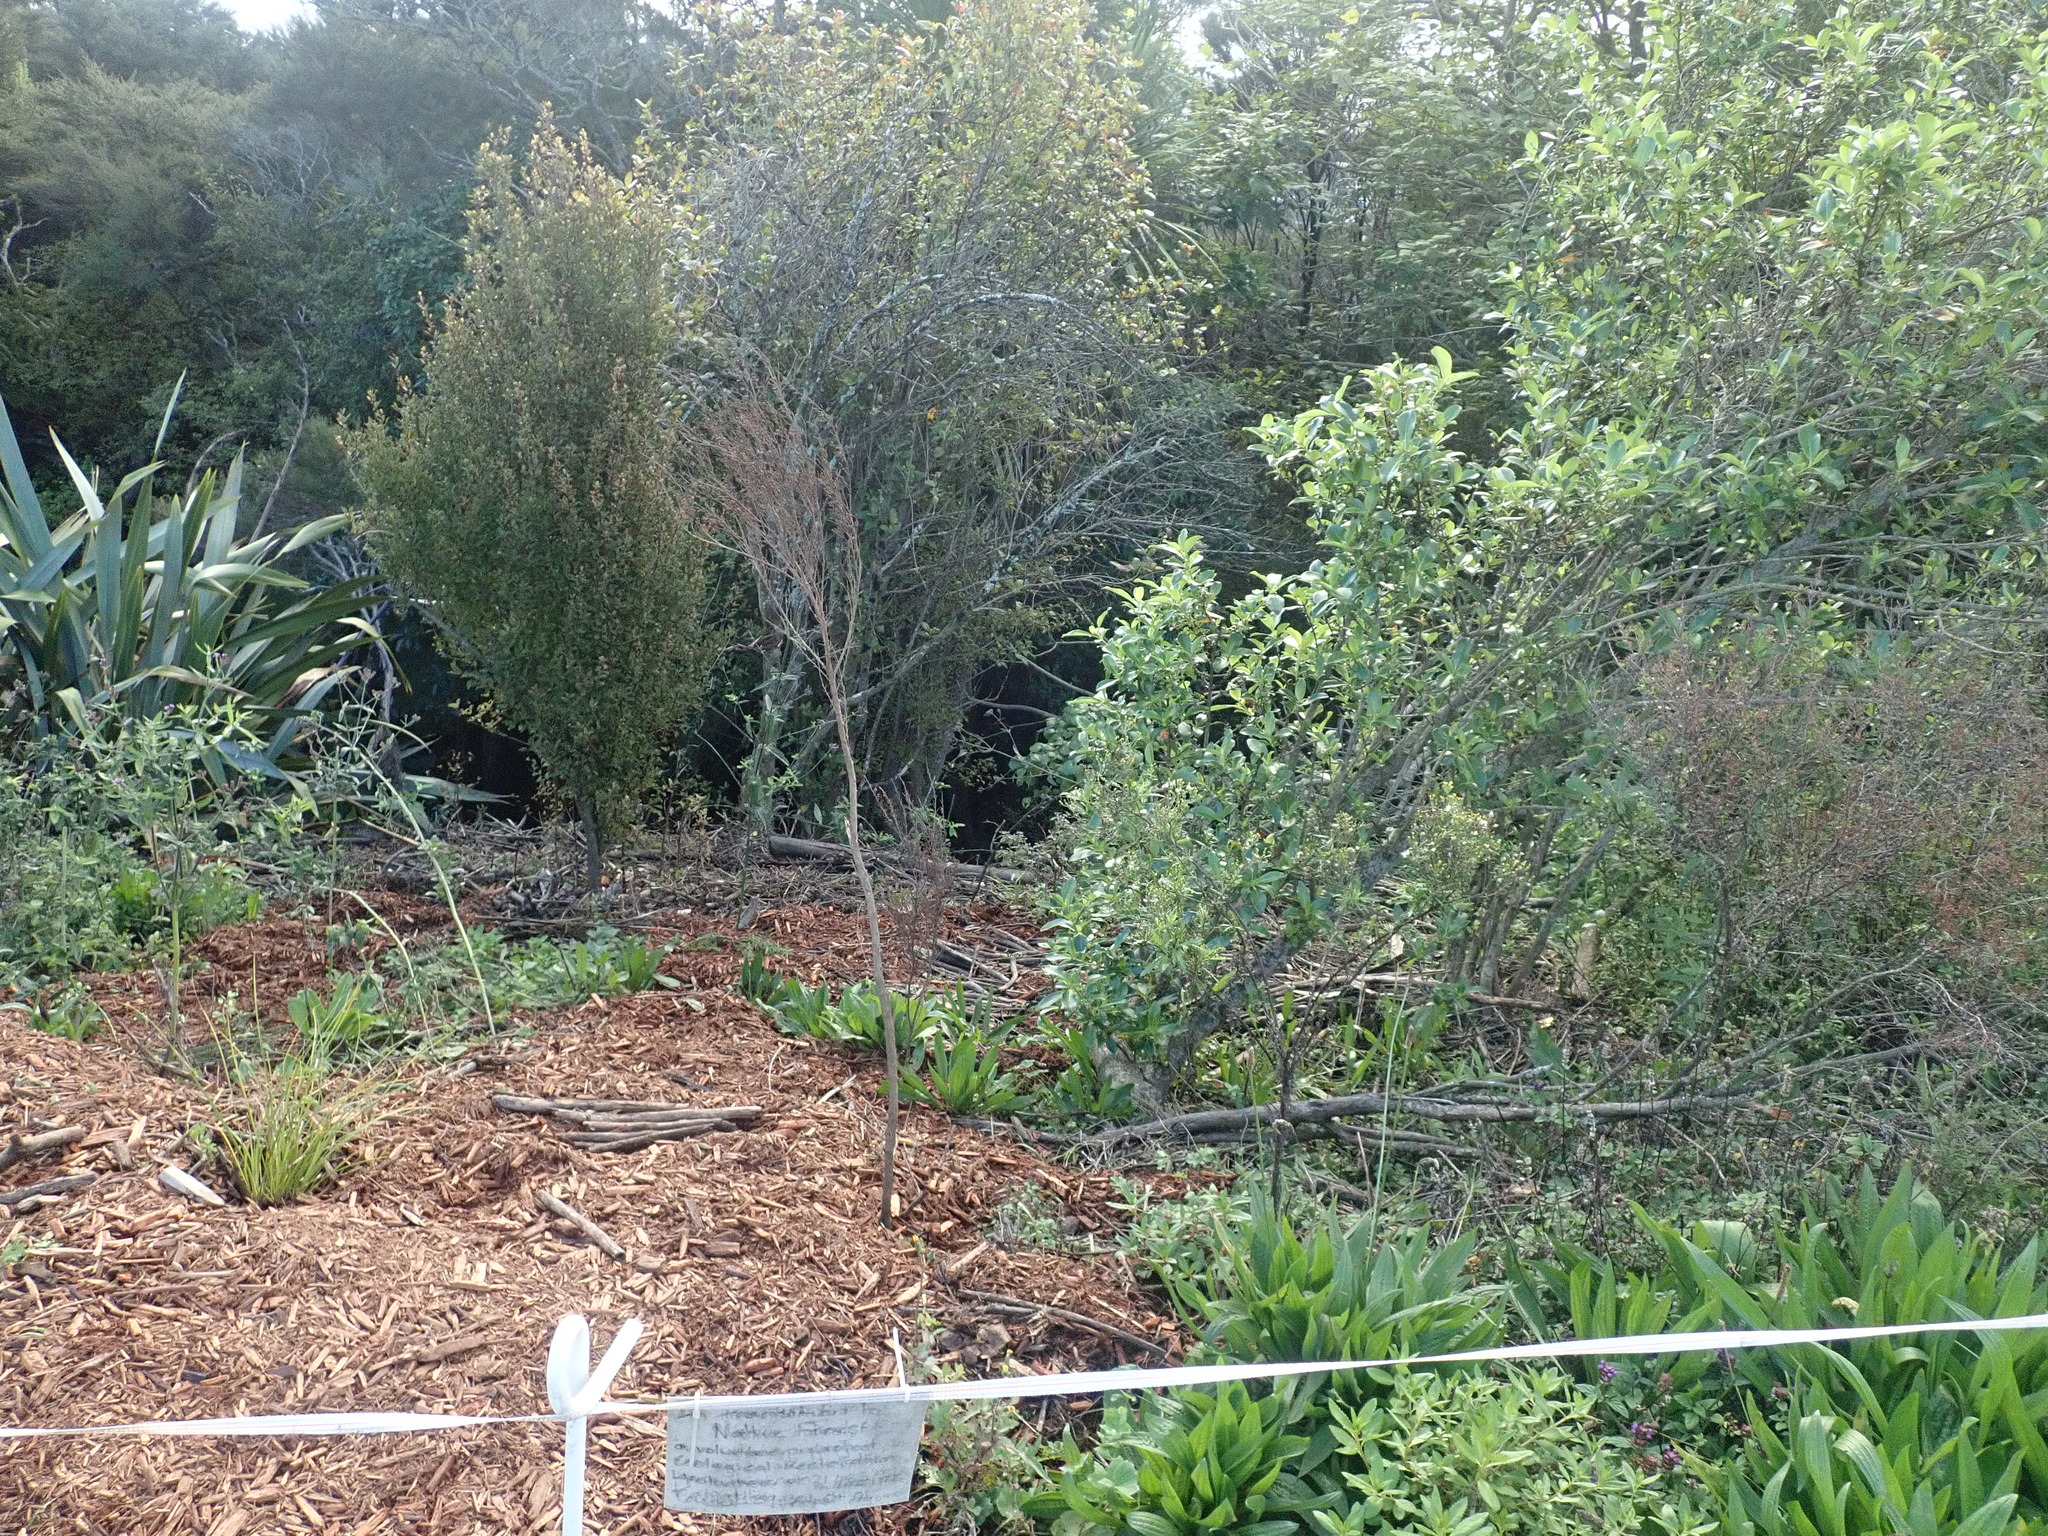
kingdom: Plantae
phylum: Tracheophyta
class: Magnoliopsida
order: Gentianales
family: Rubiaceae
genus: Coprosma
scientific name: Coprosma robusta
